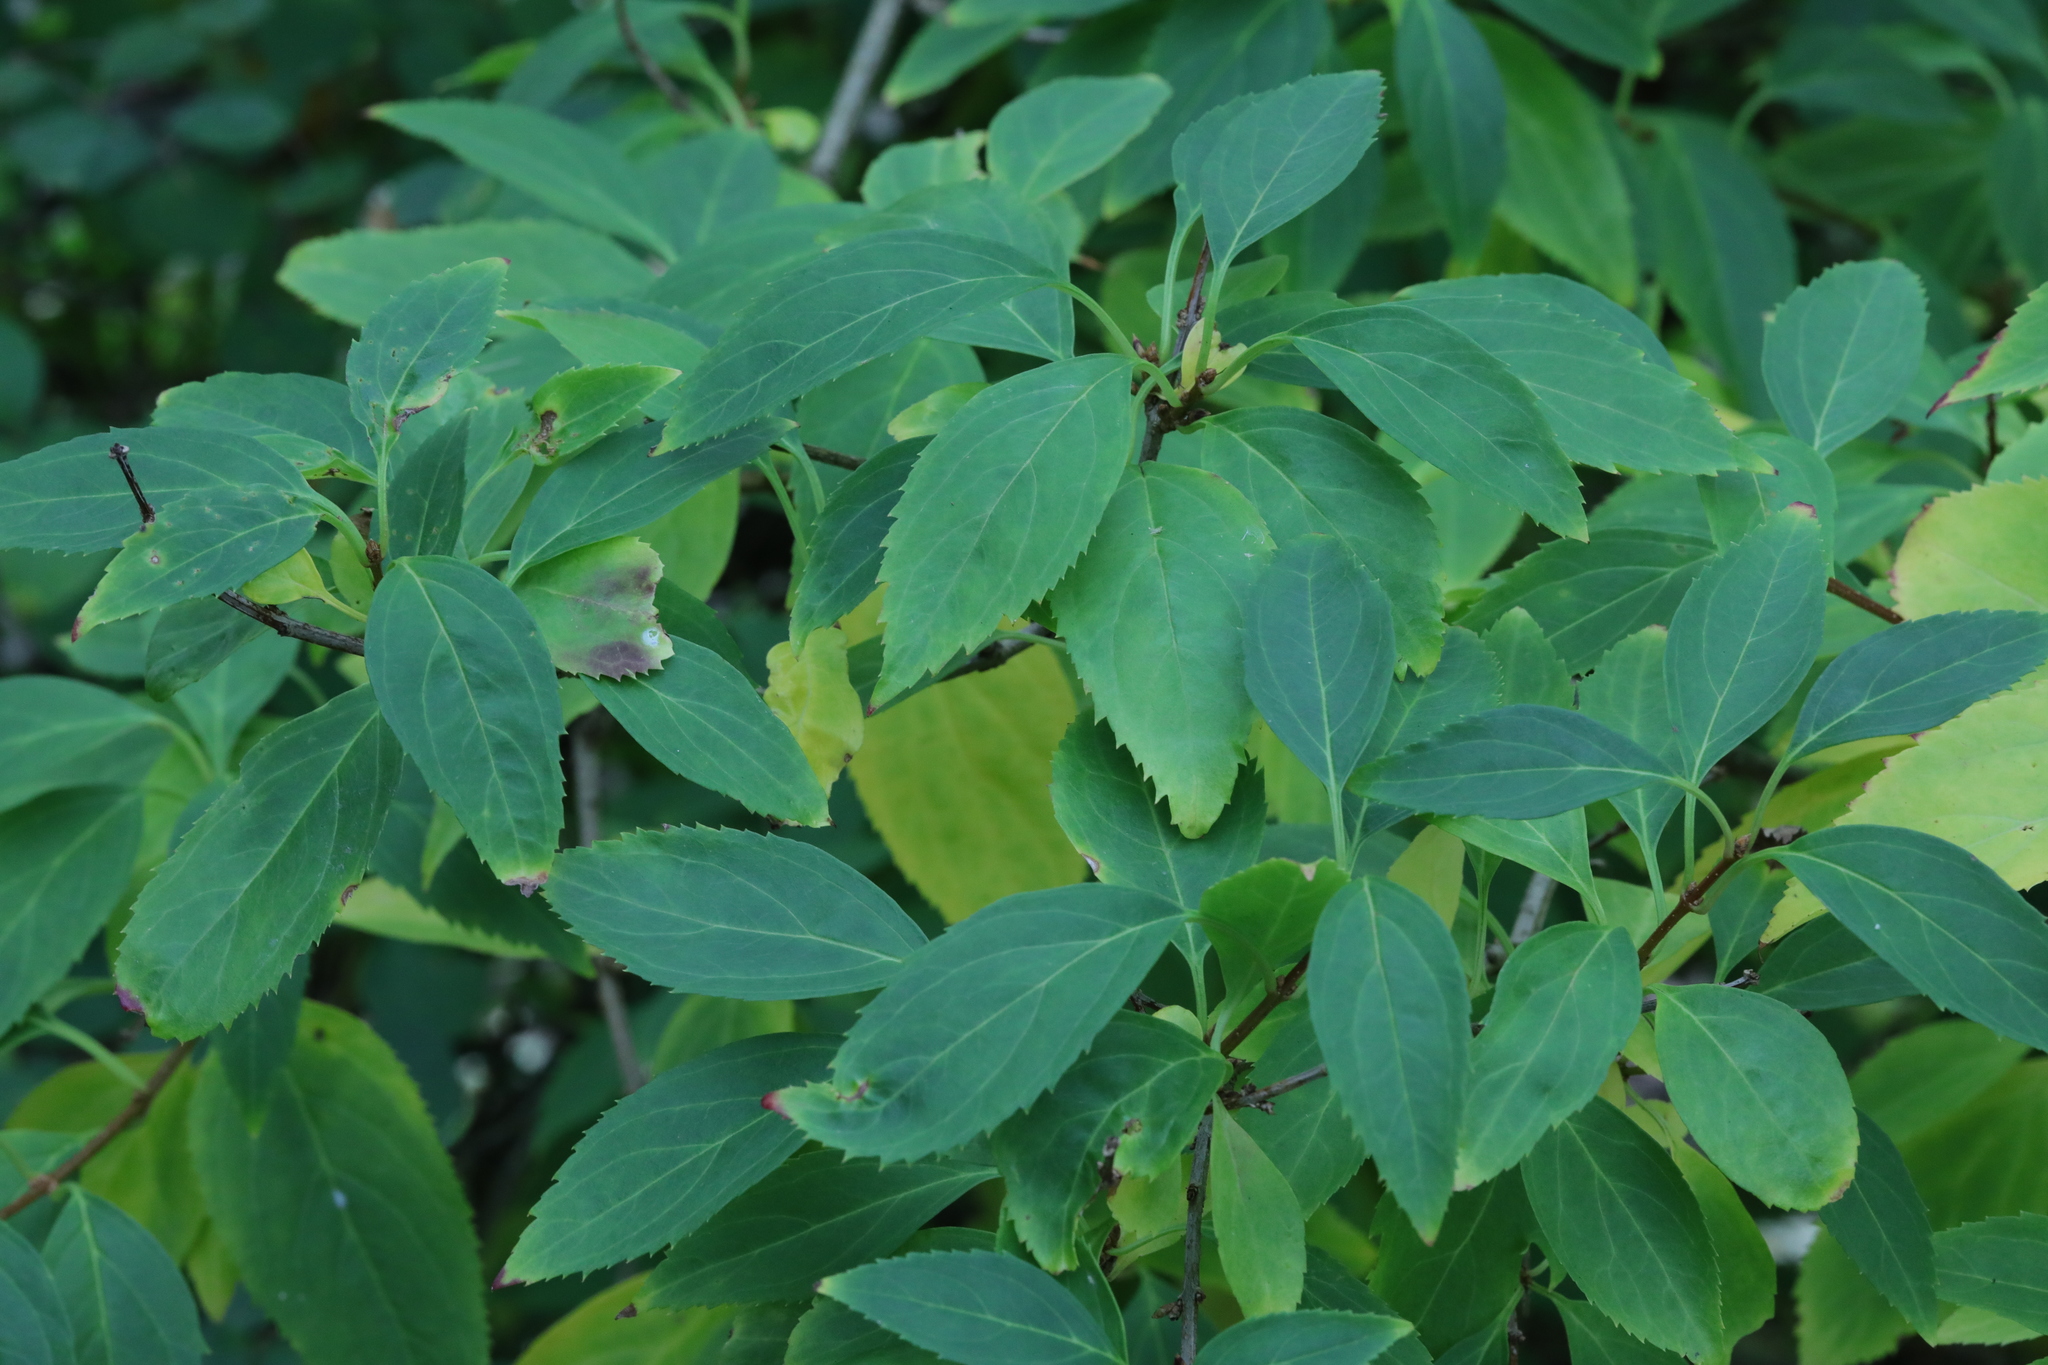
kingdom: Plantae
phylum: Tracheophyta
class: Magnoliopsida
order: Lamiales
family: Oleaceae
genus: Forsythia
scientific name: Forsythia intermedia
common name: Forsythia
